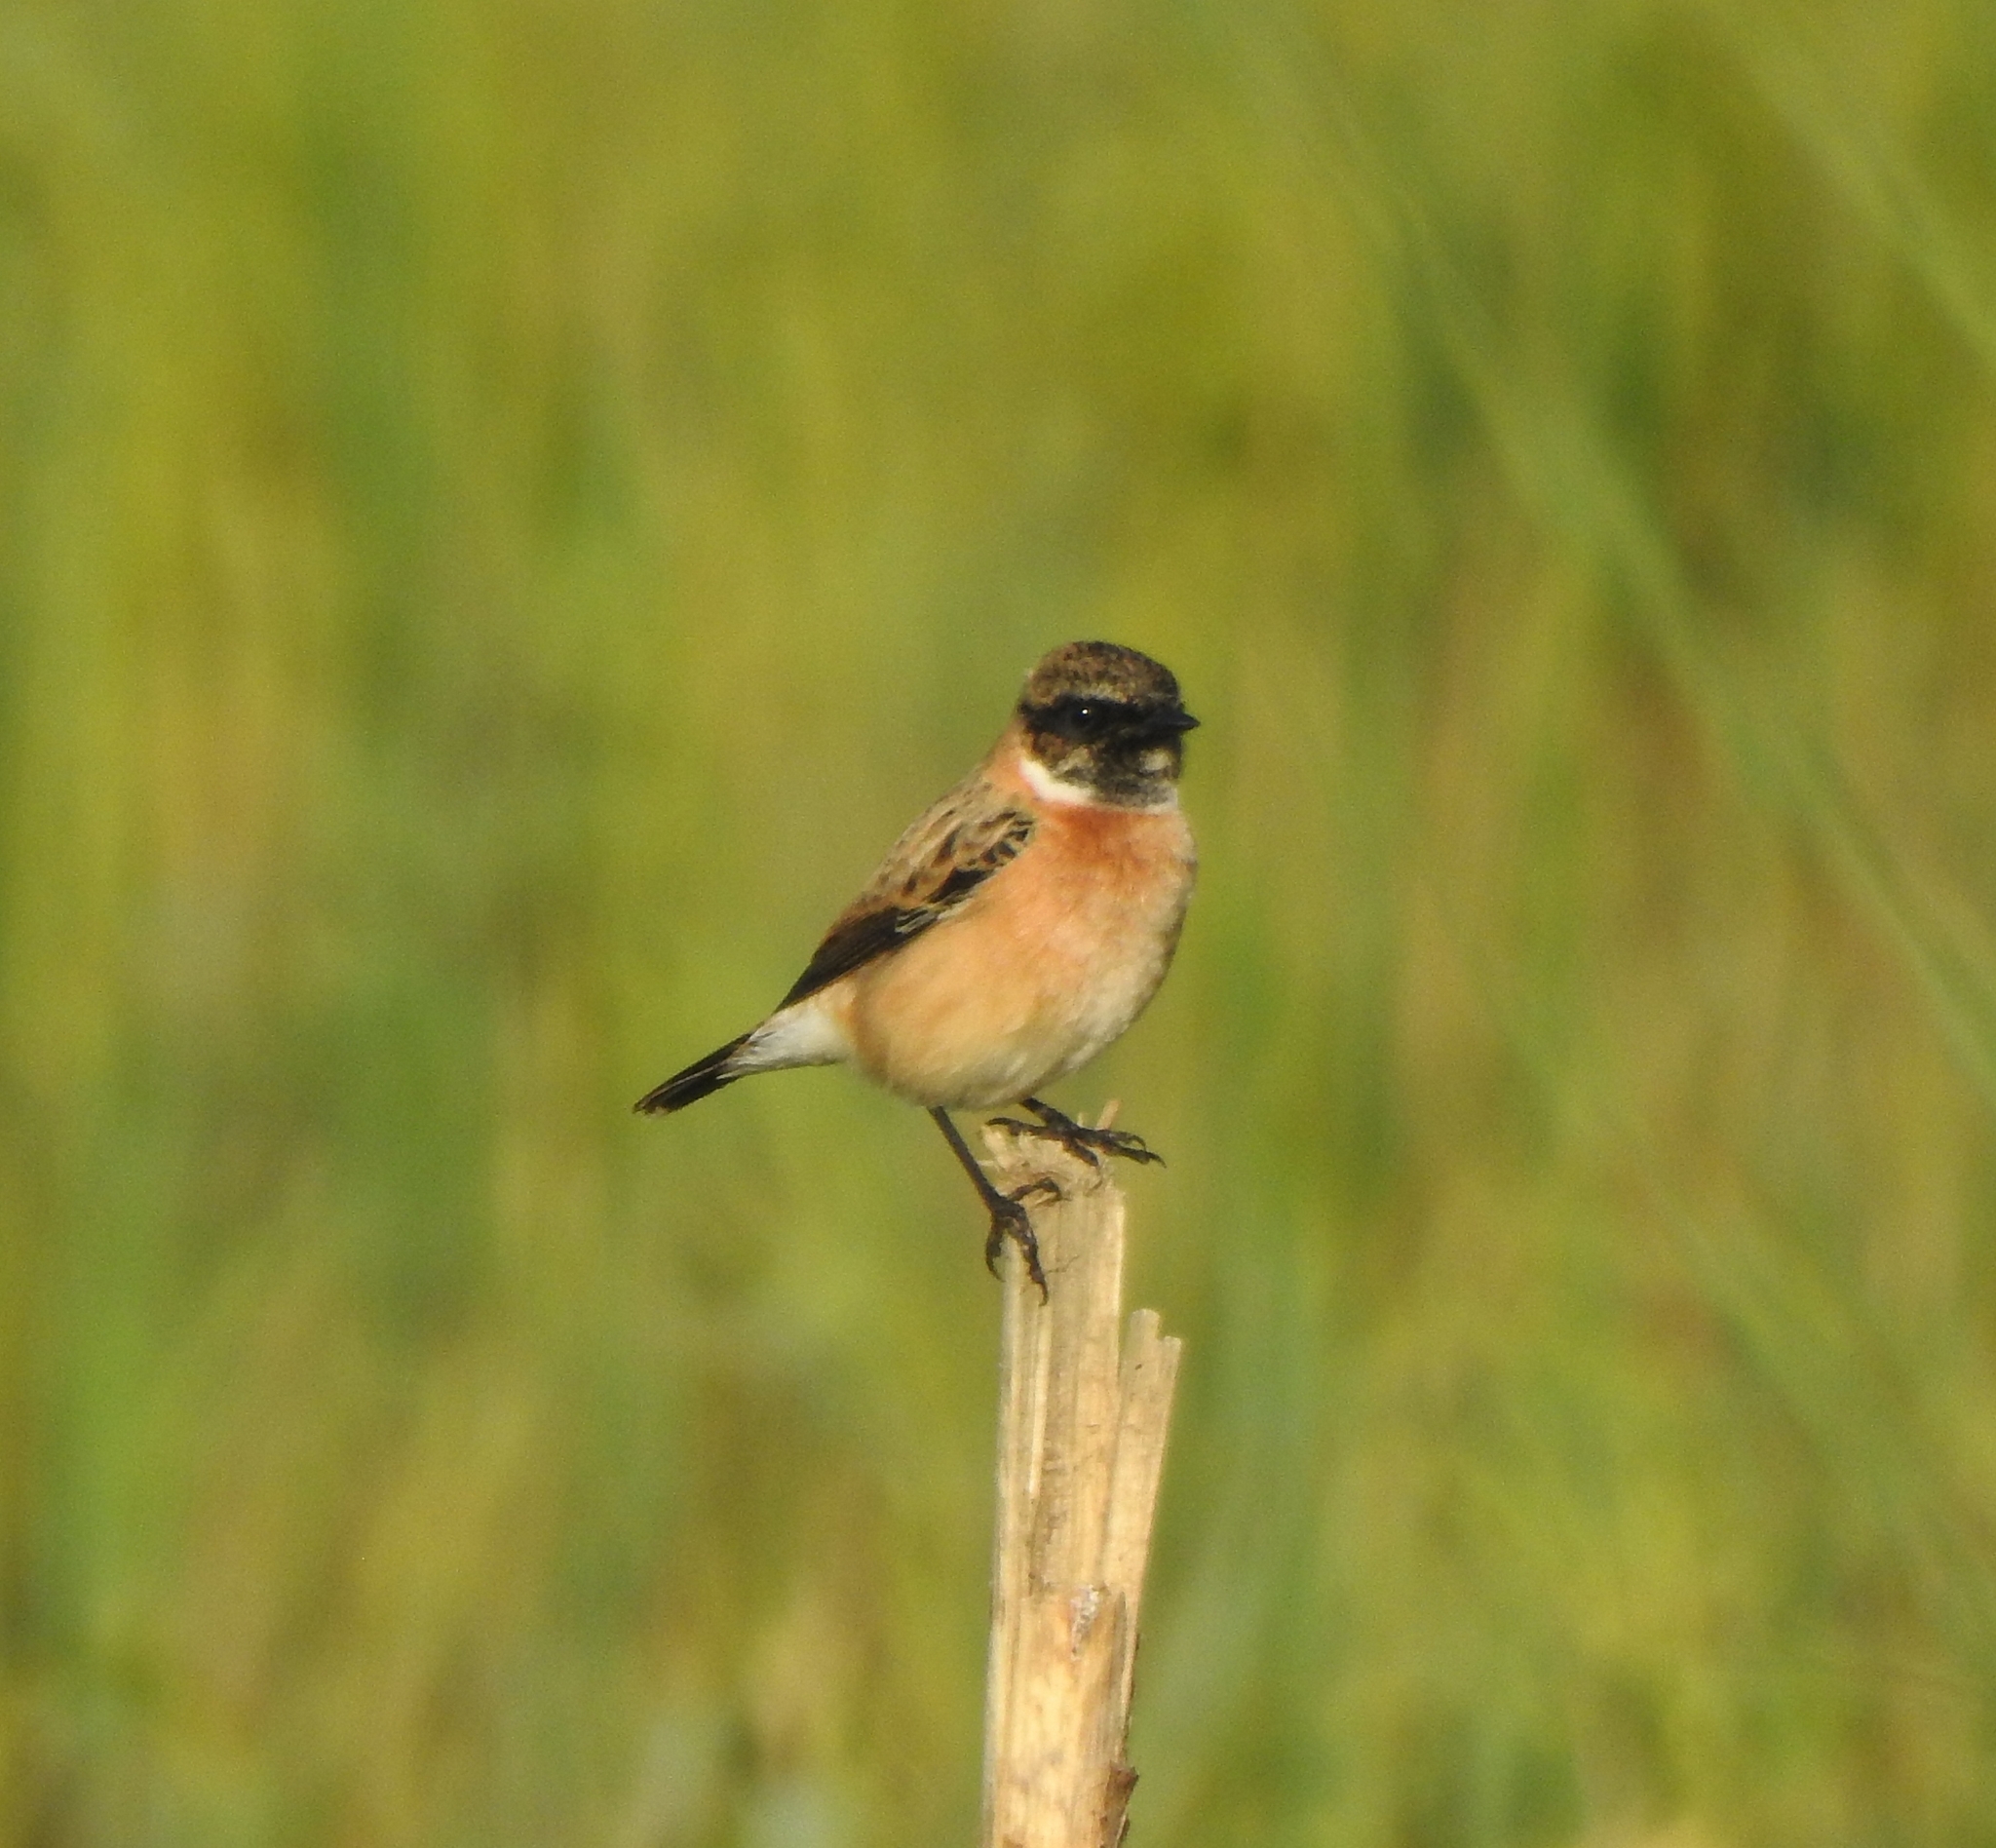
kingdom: Animalia
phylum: Chordata
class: Aves
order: Passeriformes
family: Muscicapidae
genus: Saxicola
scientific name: Saxicola maurus
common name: Siberian stonechat
